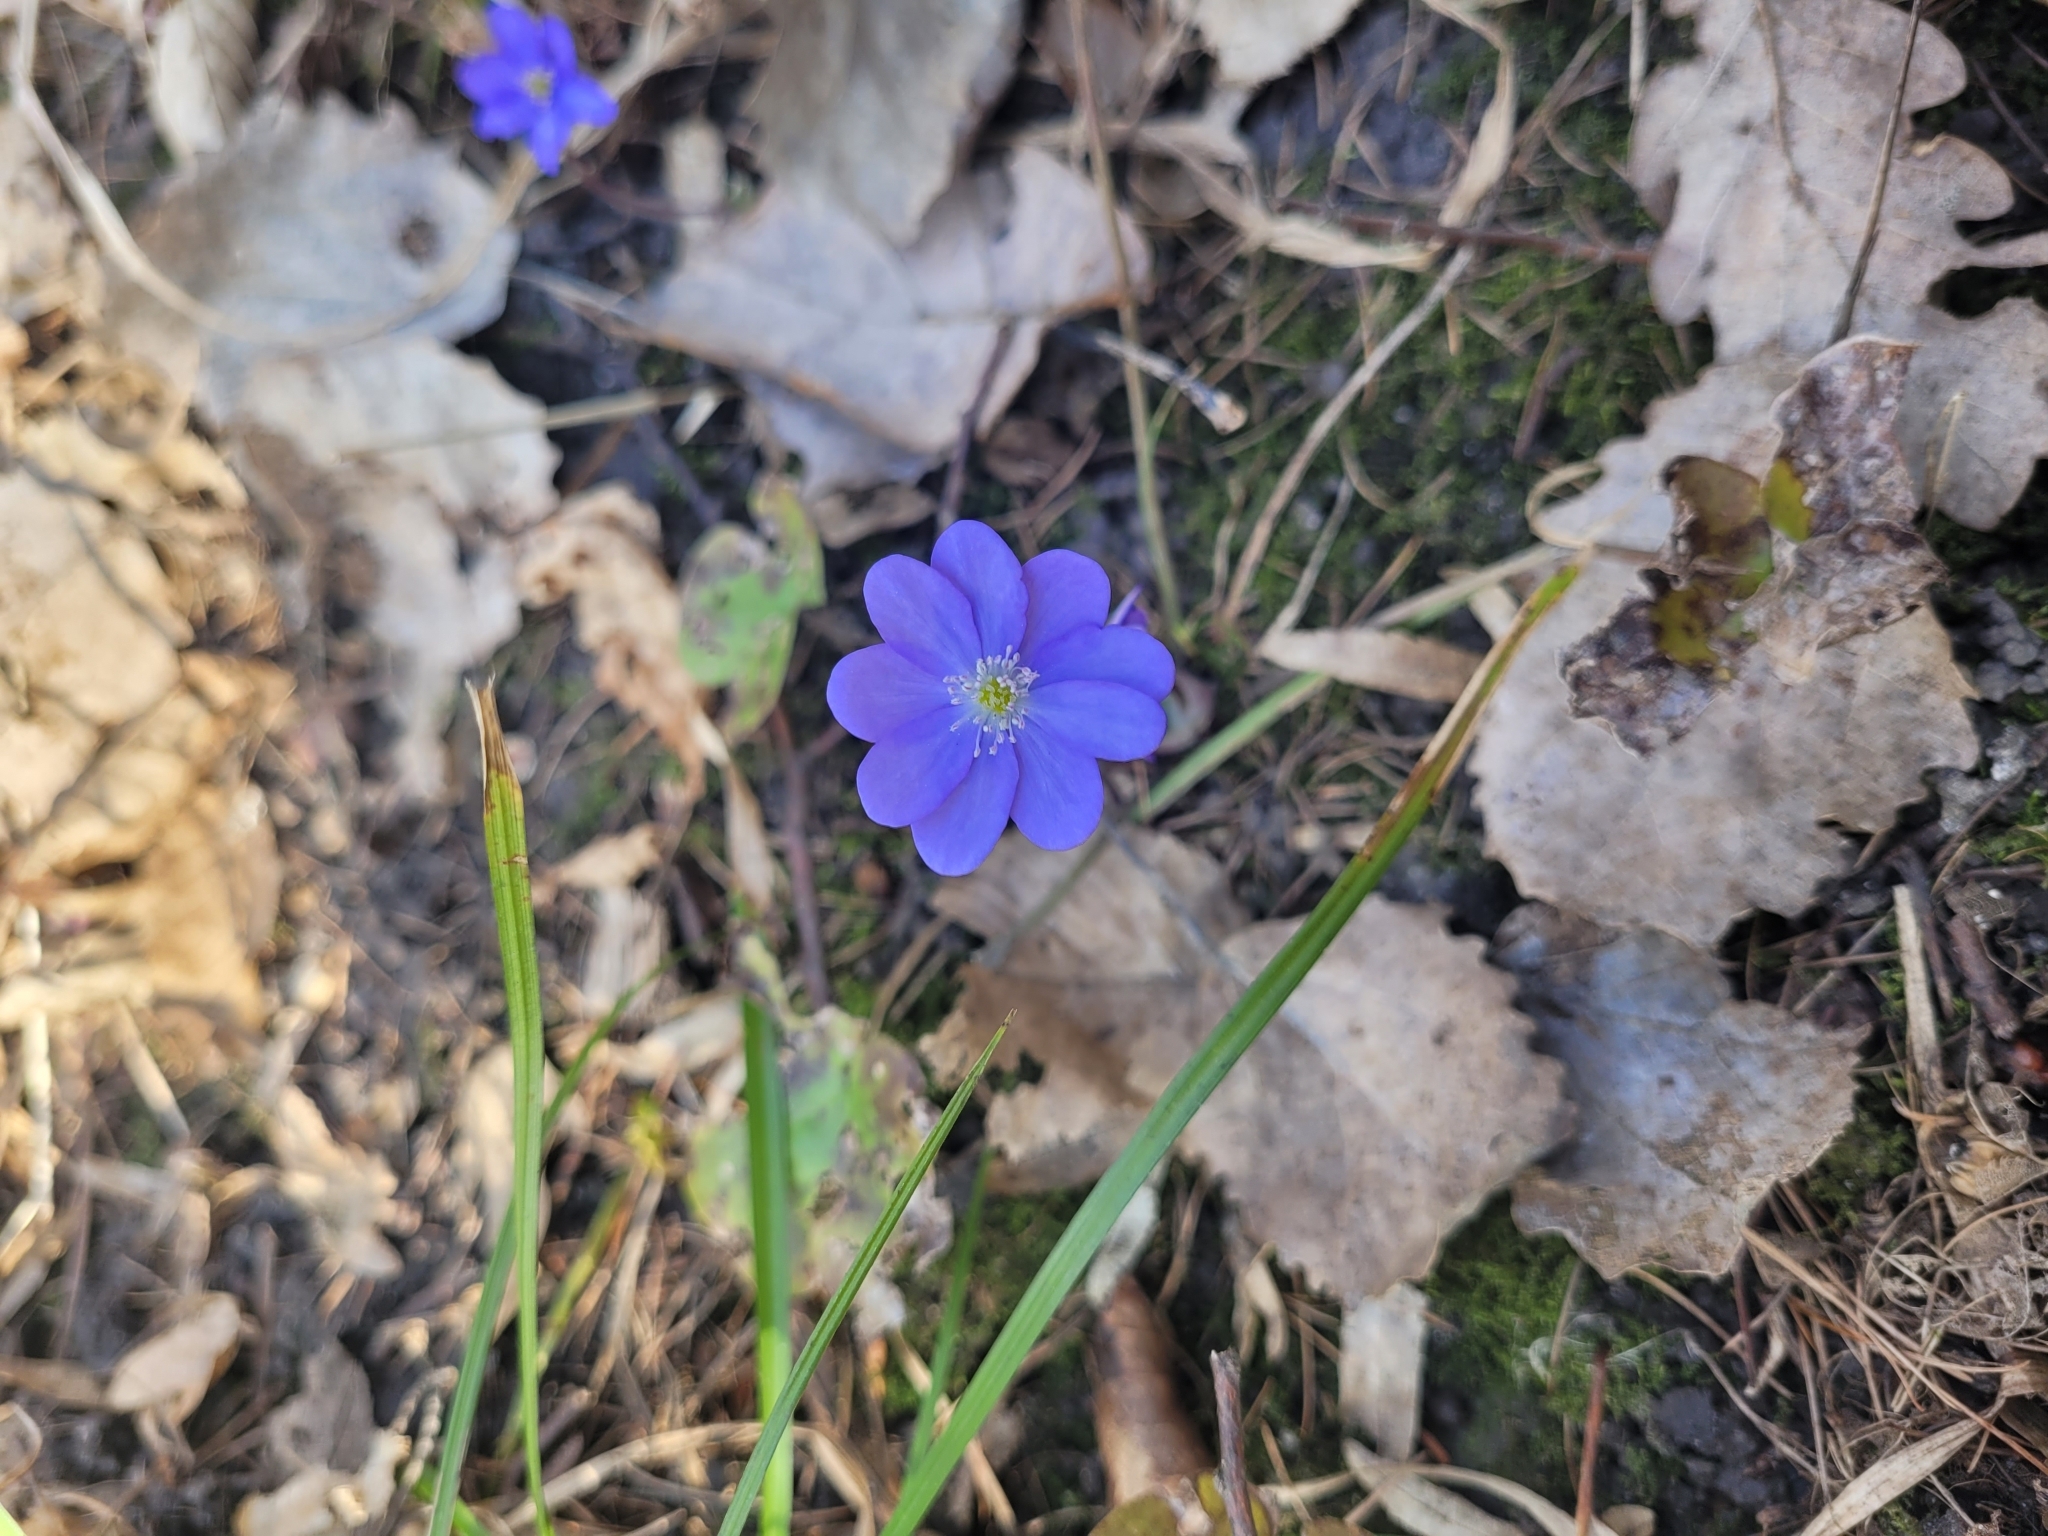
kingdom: Plantae
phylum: Tracheophyta
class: Magnoliopsida
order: Ranunculales
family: Ranunculaceae
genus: Hepatica
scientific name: Hepatica nobilis
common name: Liverleaf
